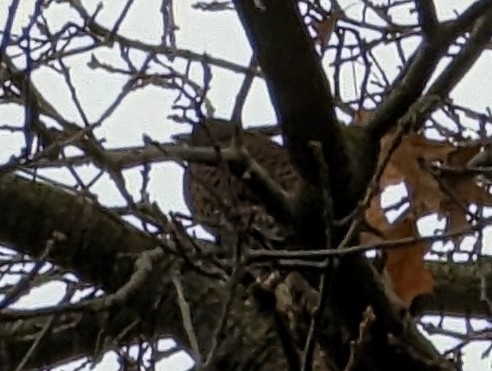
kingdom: Animalia
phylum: Chordata
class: Aves
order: Piciformes
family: Picidae
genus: Colaptes
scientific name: Colaptes auratus
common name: Northern flicker
